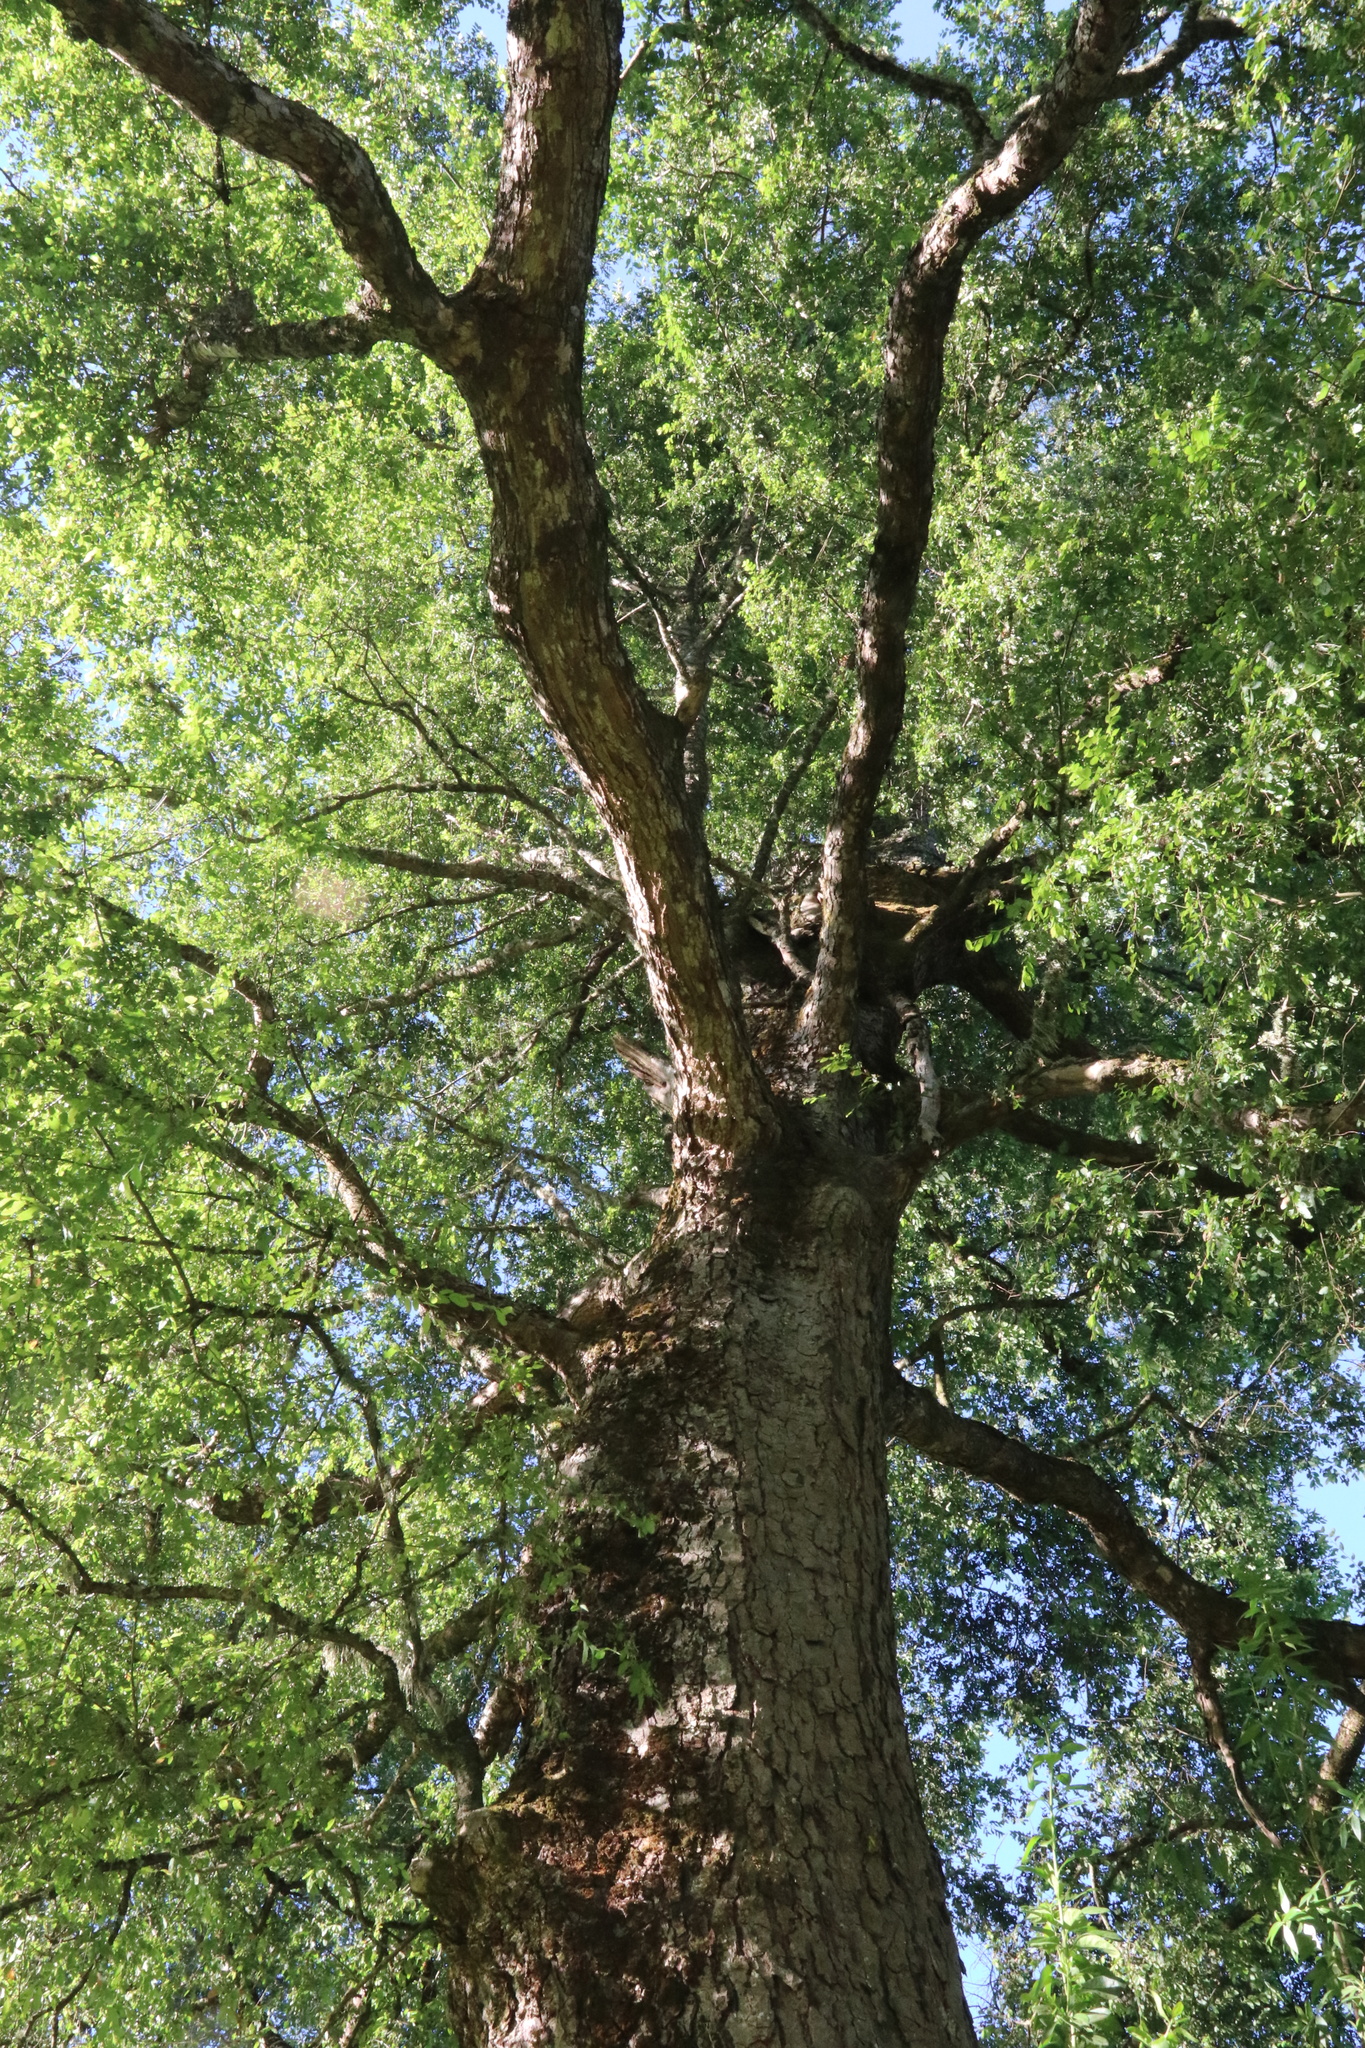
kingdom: Plantae
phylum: Tracheophyta
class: Magnoliopsida
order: Fagales
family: Nothofagaceae
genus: Nothofagus
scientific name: Nothofagus obliqua
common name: Roble beech
